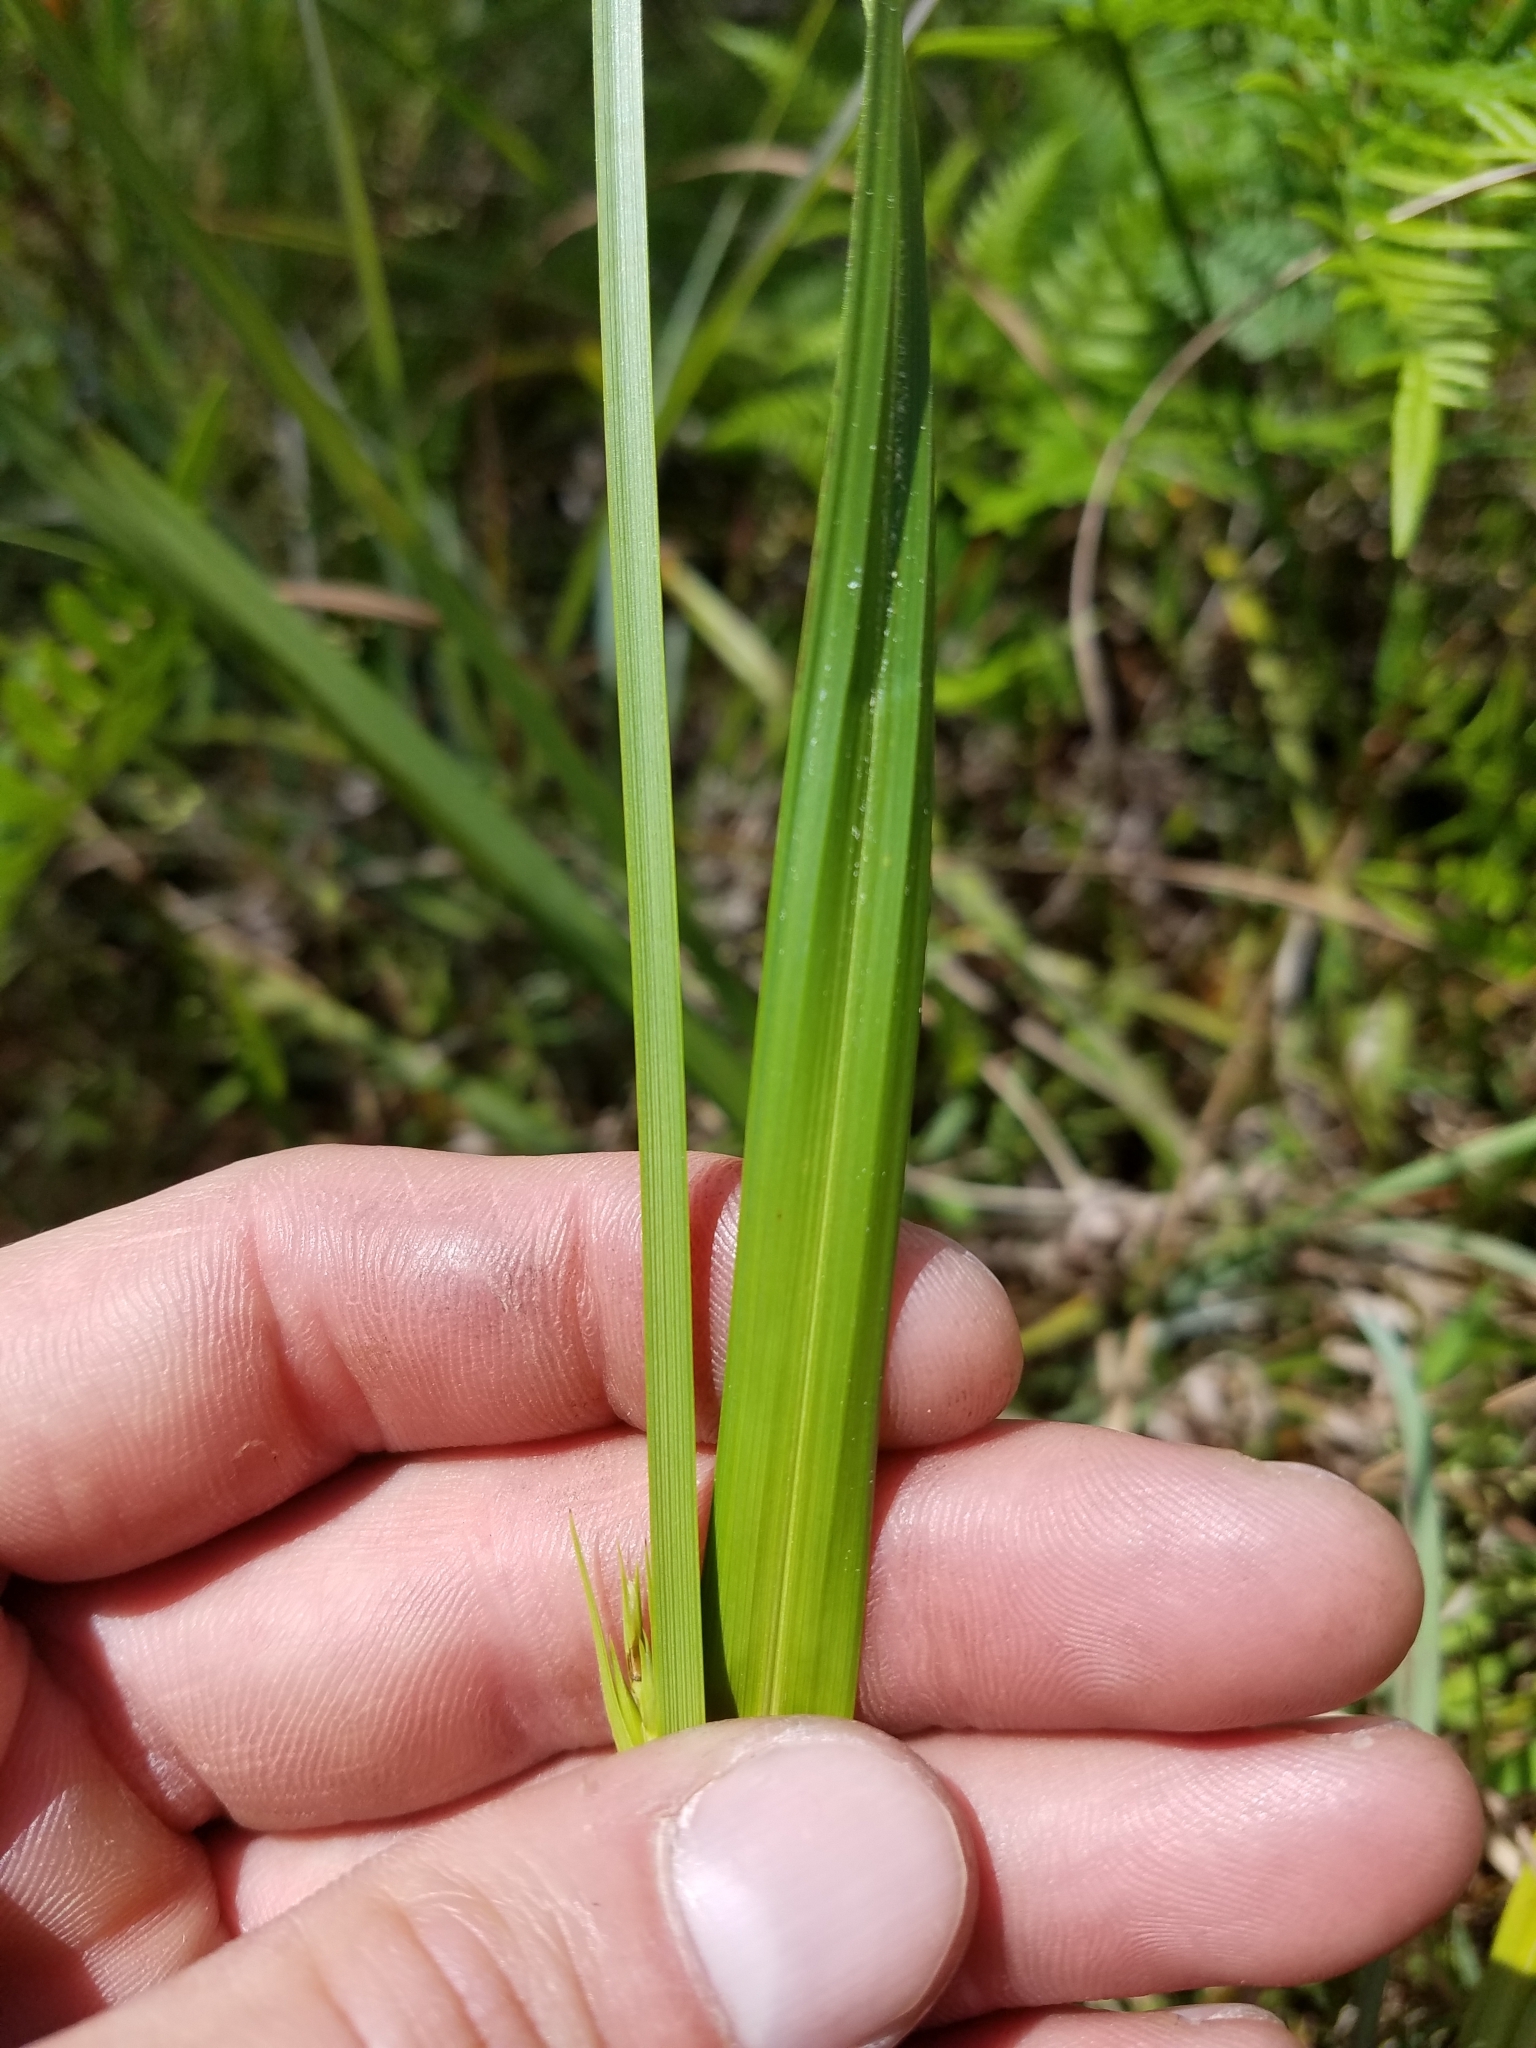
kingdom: Plantae
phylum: Tracheophyta
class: Liliopsida
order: Poales
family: Cyperaceae
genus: Scleria
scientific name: Scleria triglomerata
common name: Whip nutrush
